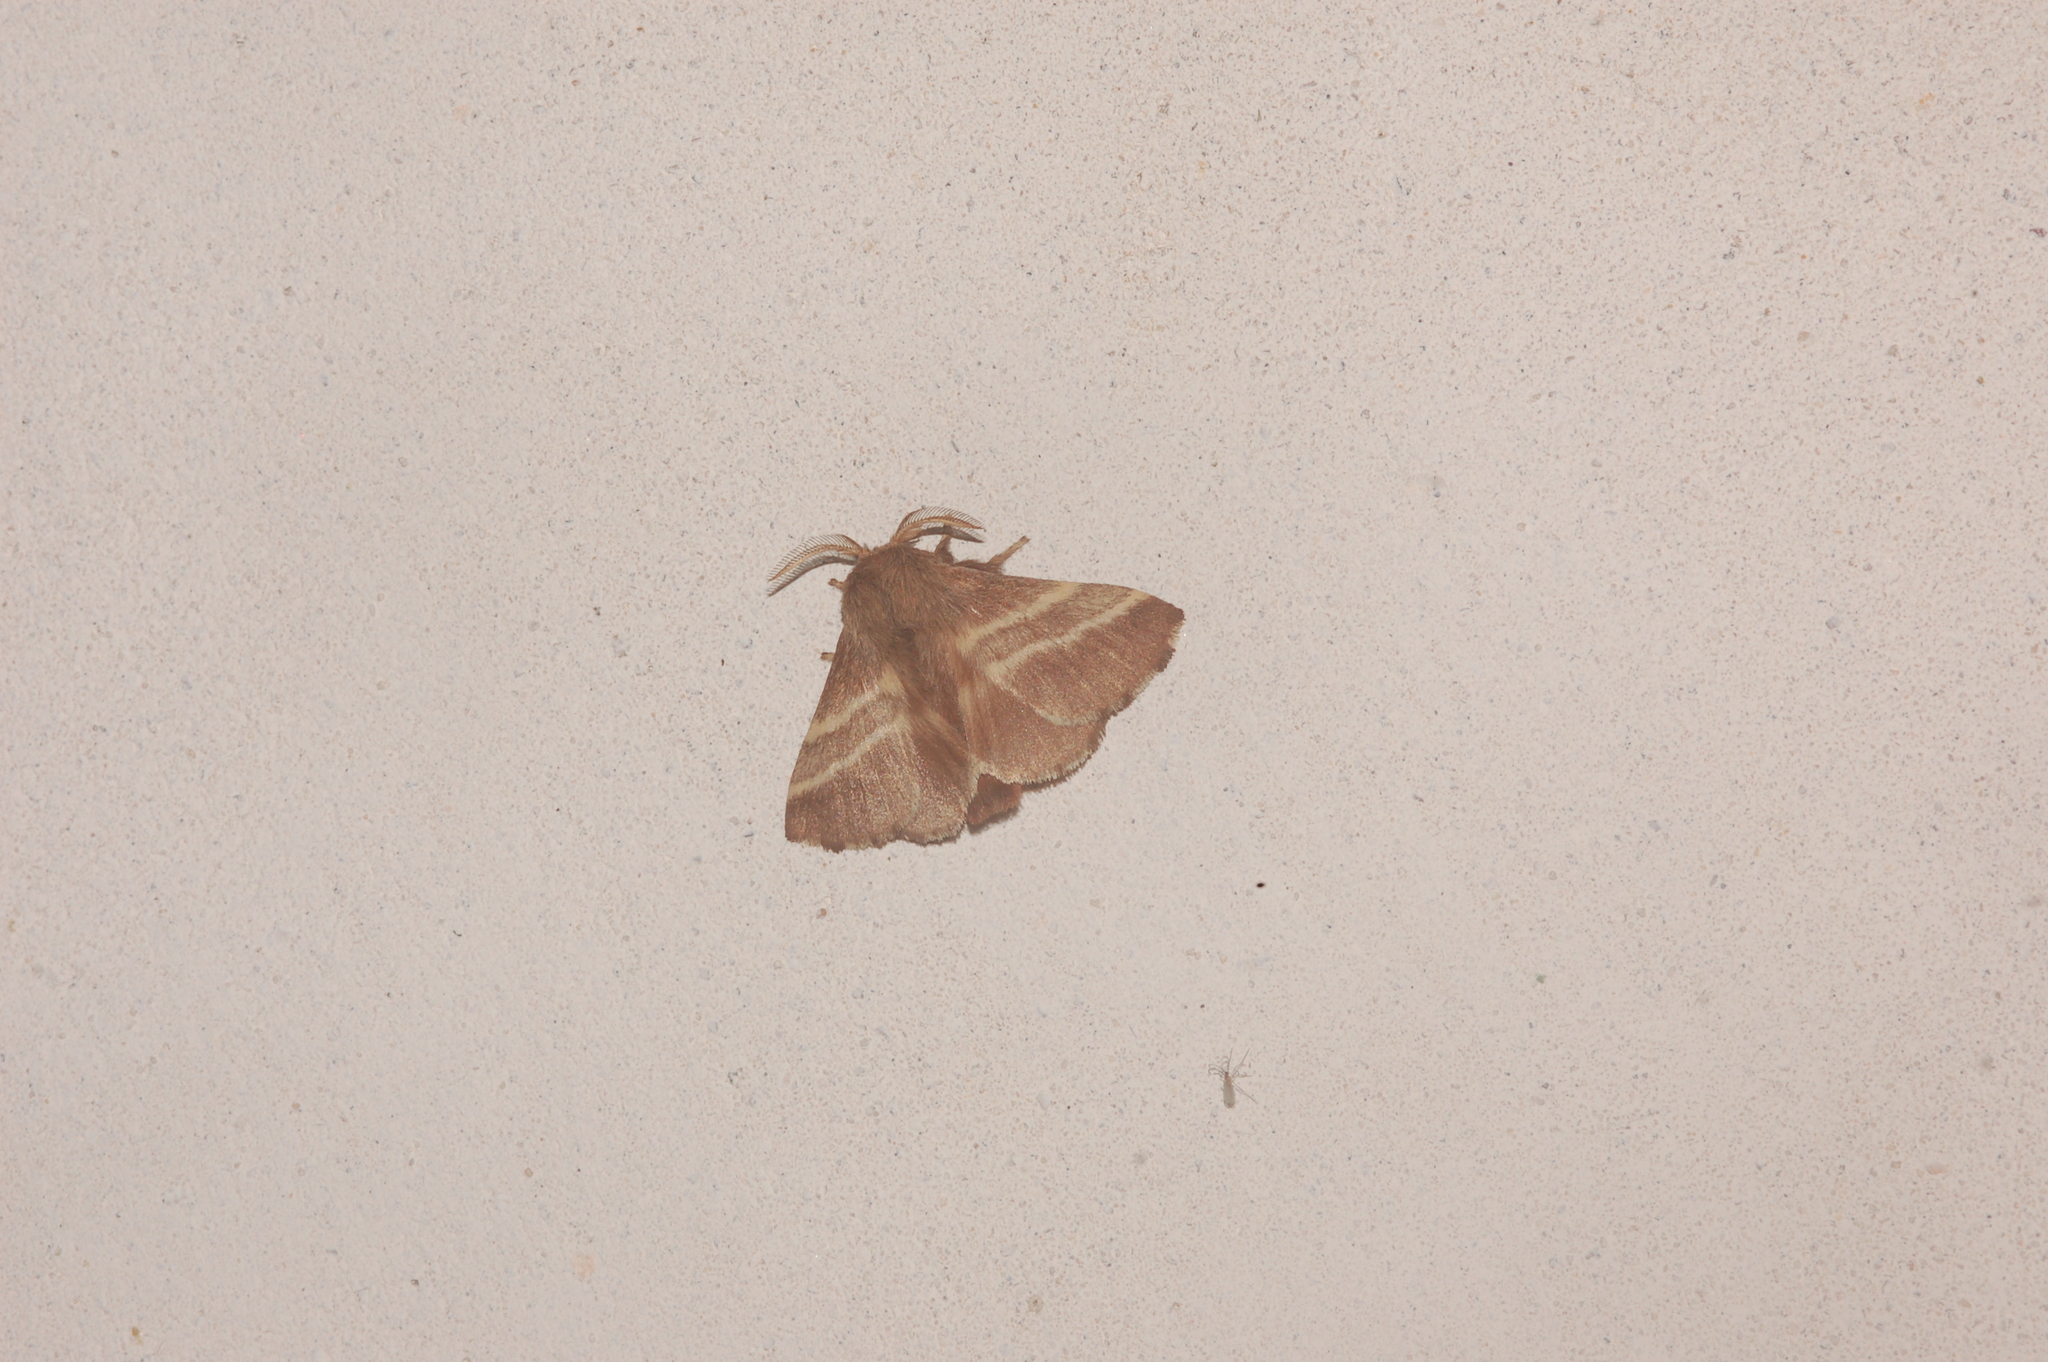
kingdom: Animalia
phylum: Arthropoda
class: Insecta
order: Lepidoptera
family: Lasiocampidae
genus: Malacosoma
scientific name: Malacosoma americana
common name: Eastern tent caterpillar moth
